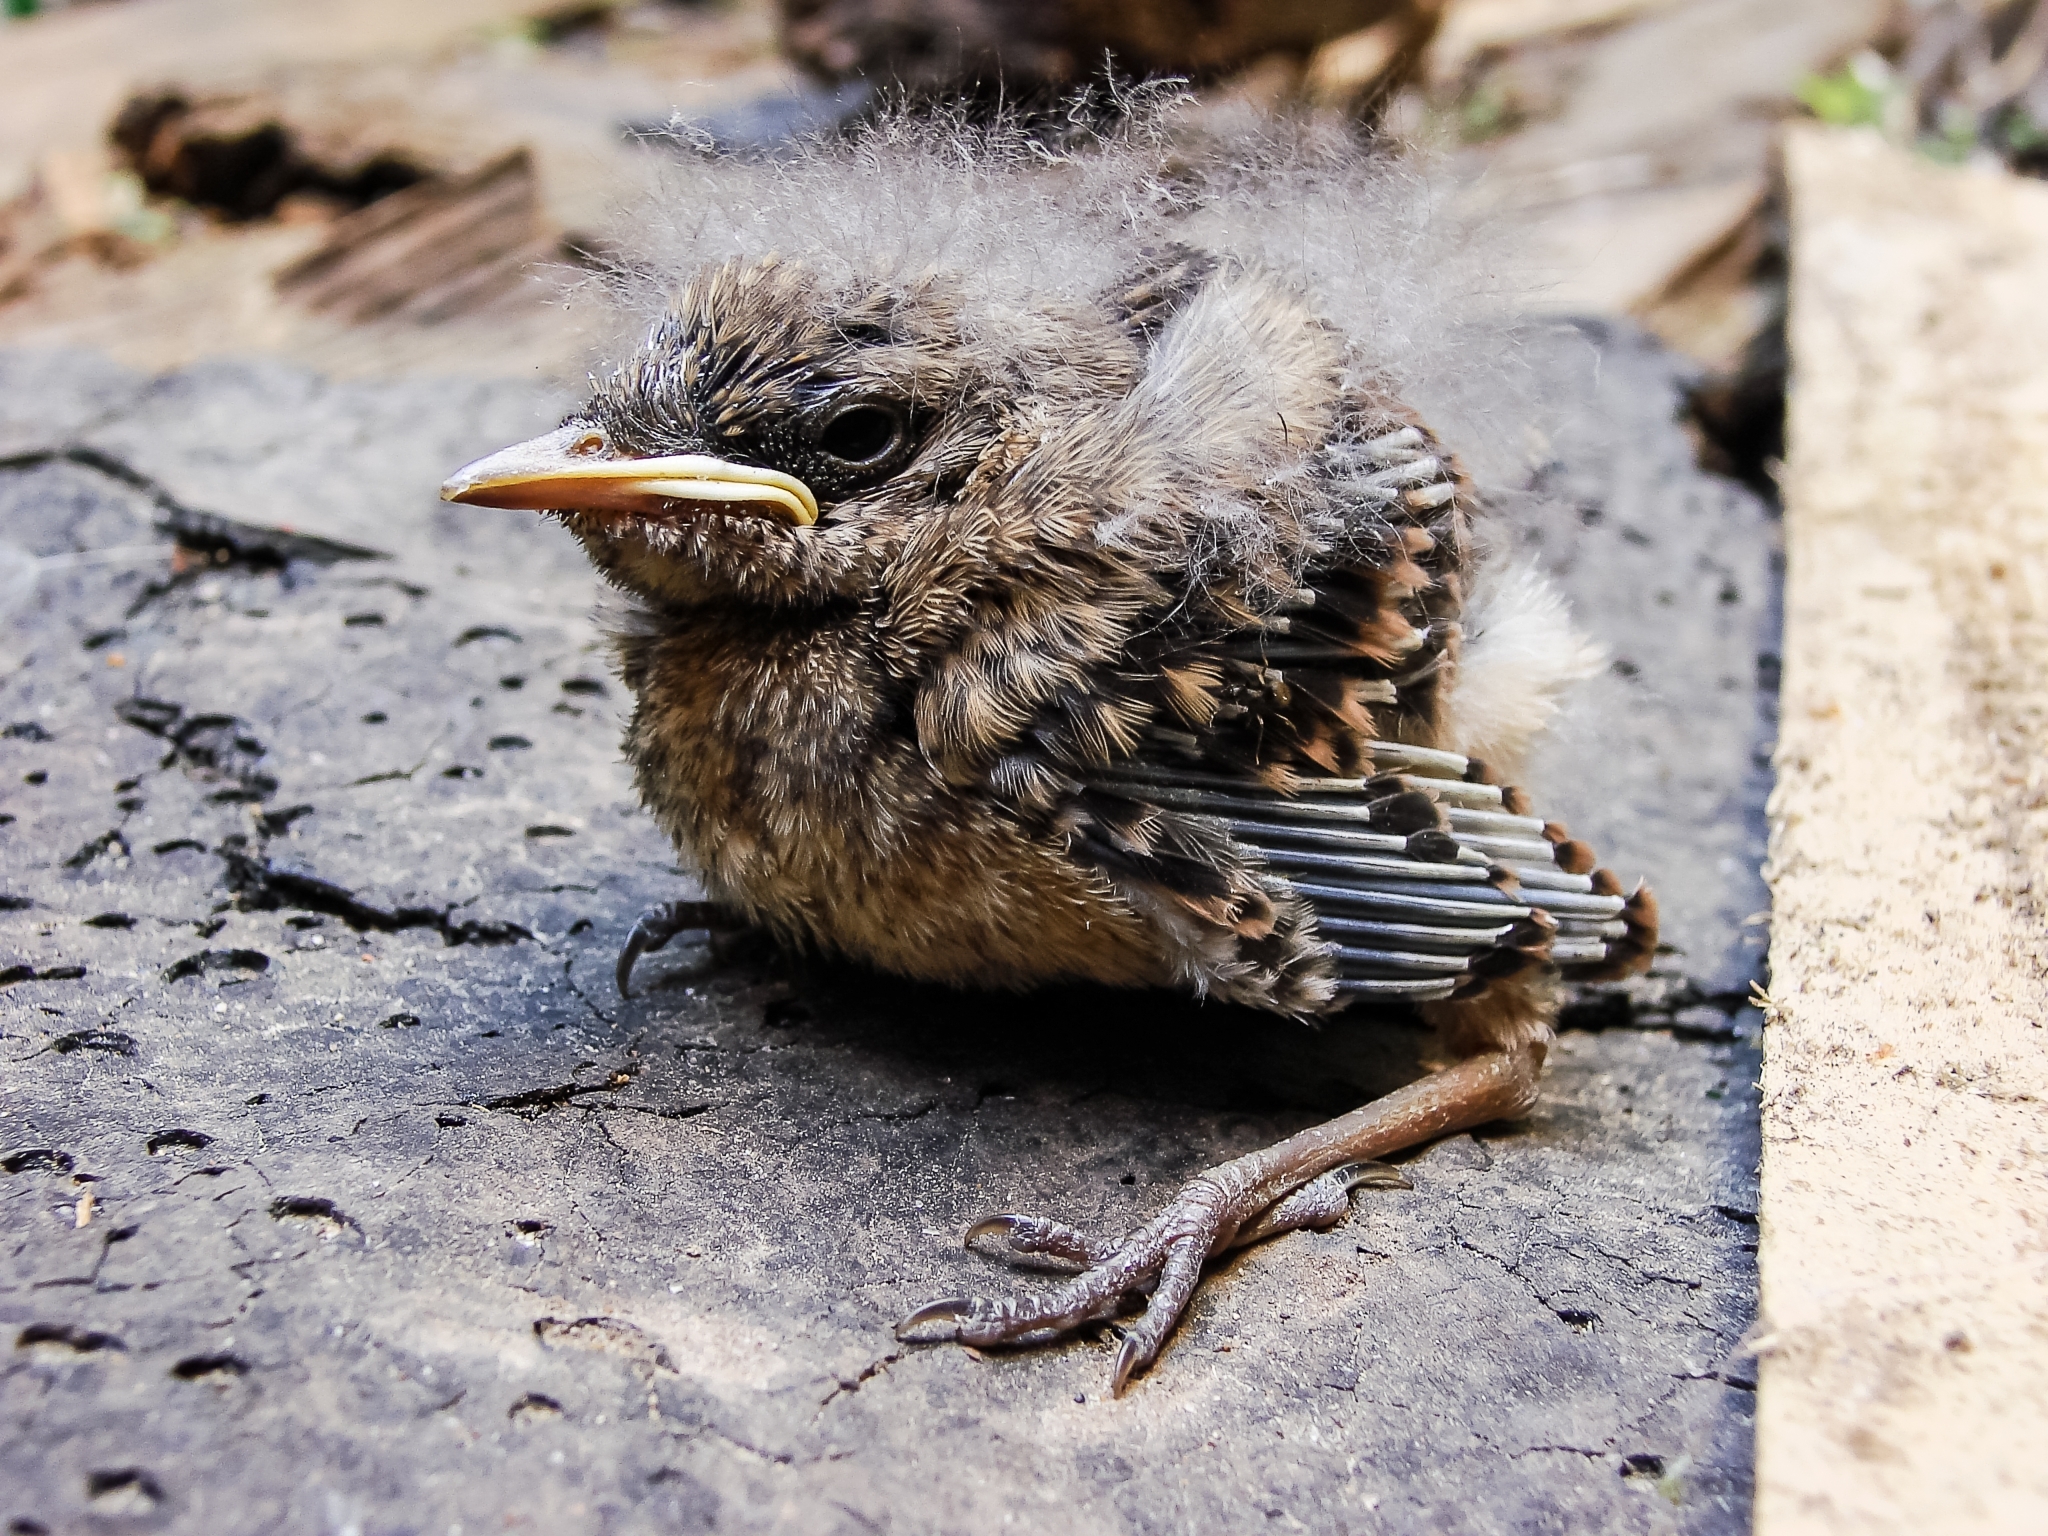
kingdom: Animalia
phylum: Chordata
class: Aves
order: Passeriformes
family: Muscicapidae
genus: Oenanthe
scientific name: Oenanthe oenanthe
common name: Northern wheatear
